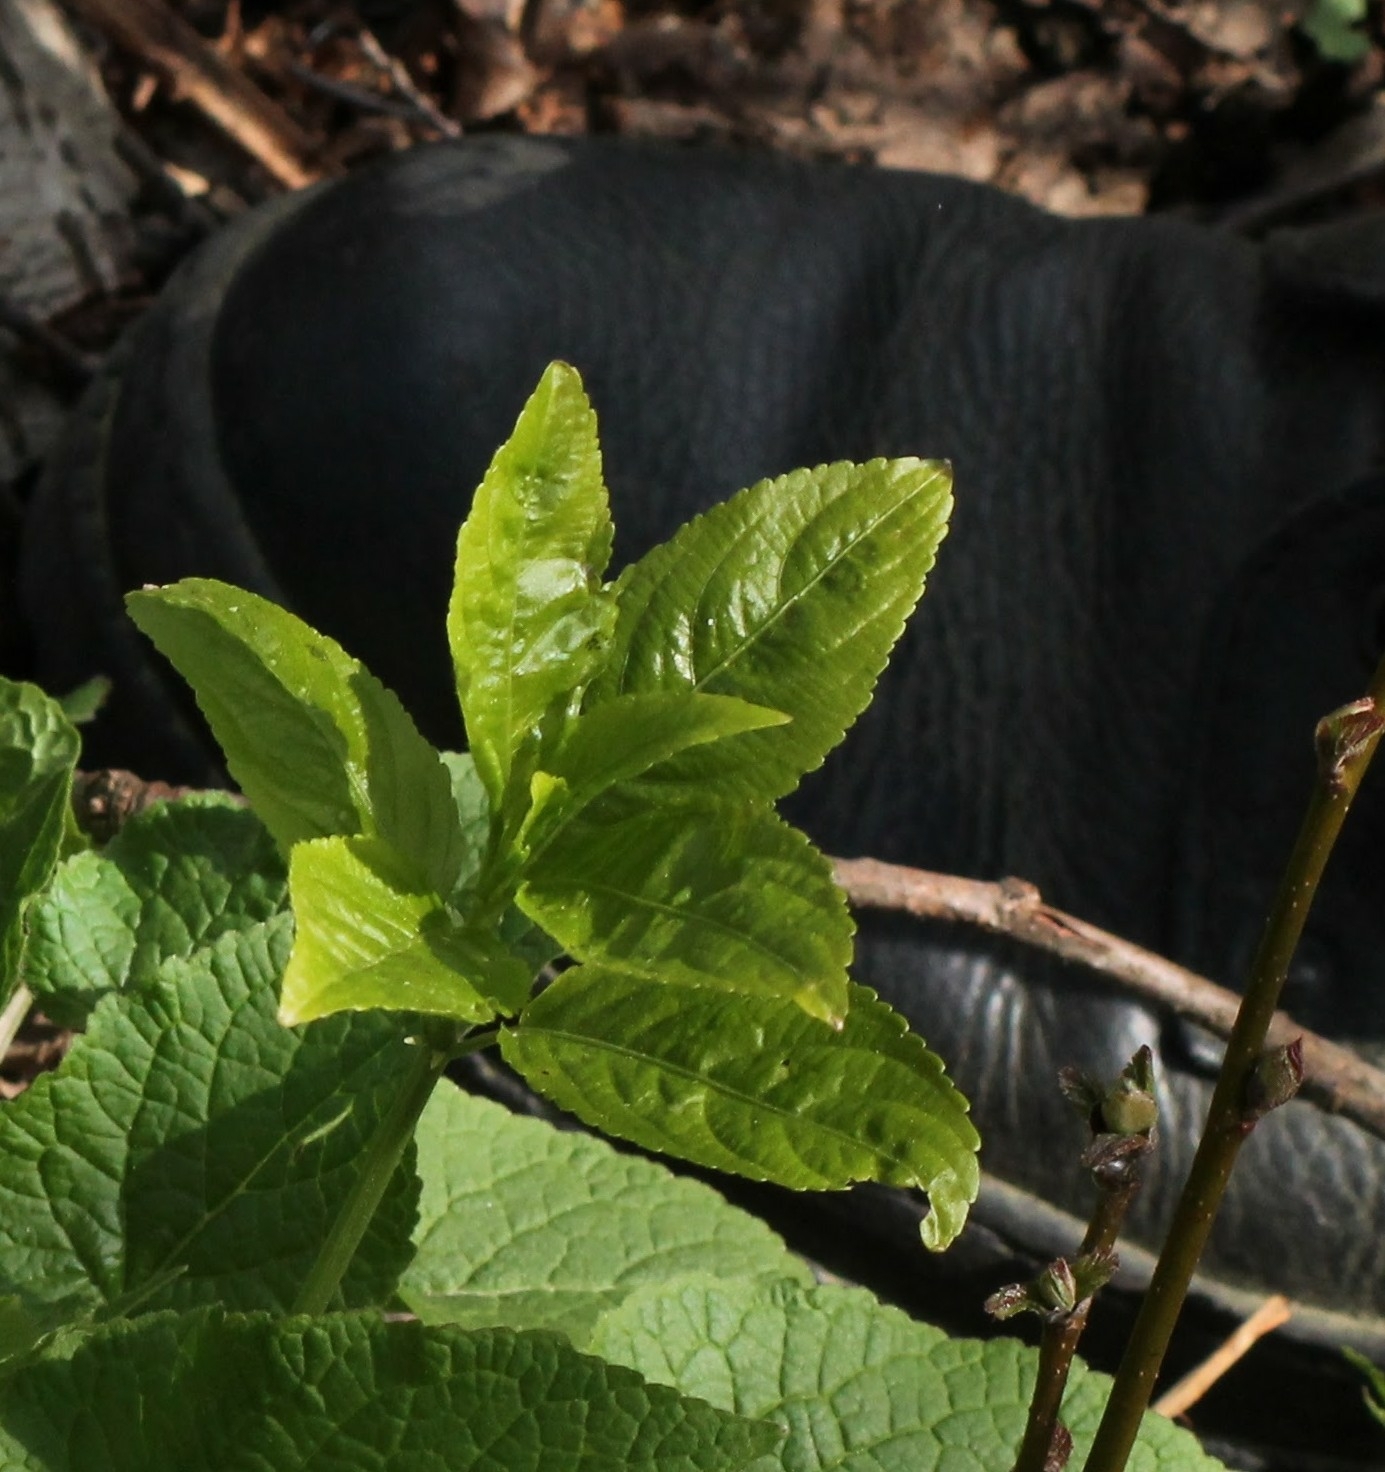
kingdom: Plantae
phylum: Tracheophyta
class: Magnoliopsida
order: Malpighiales
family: Euphorbiaceae
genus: Mercurialis
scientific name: Mercurialis perennis
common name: Dog mercury
